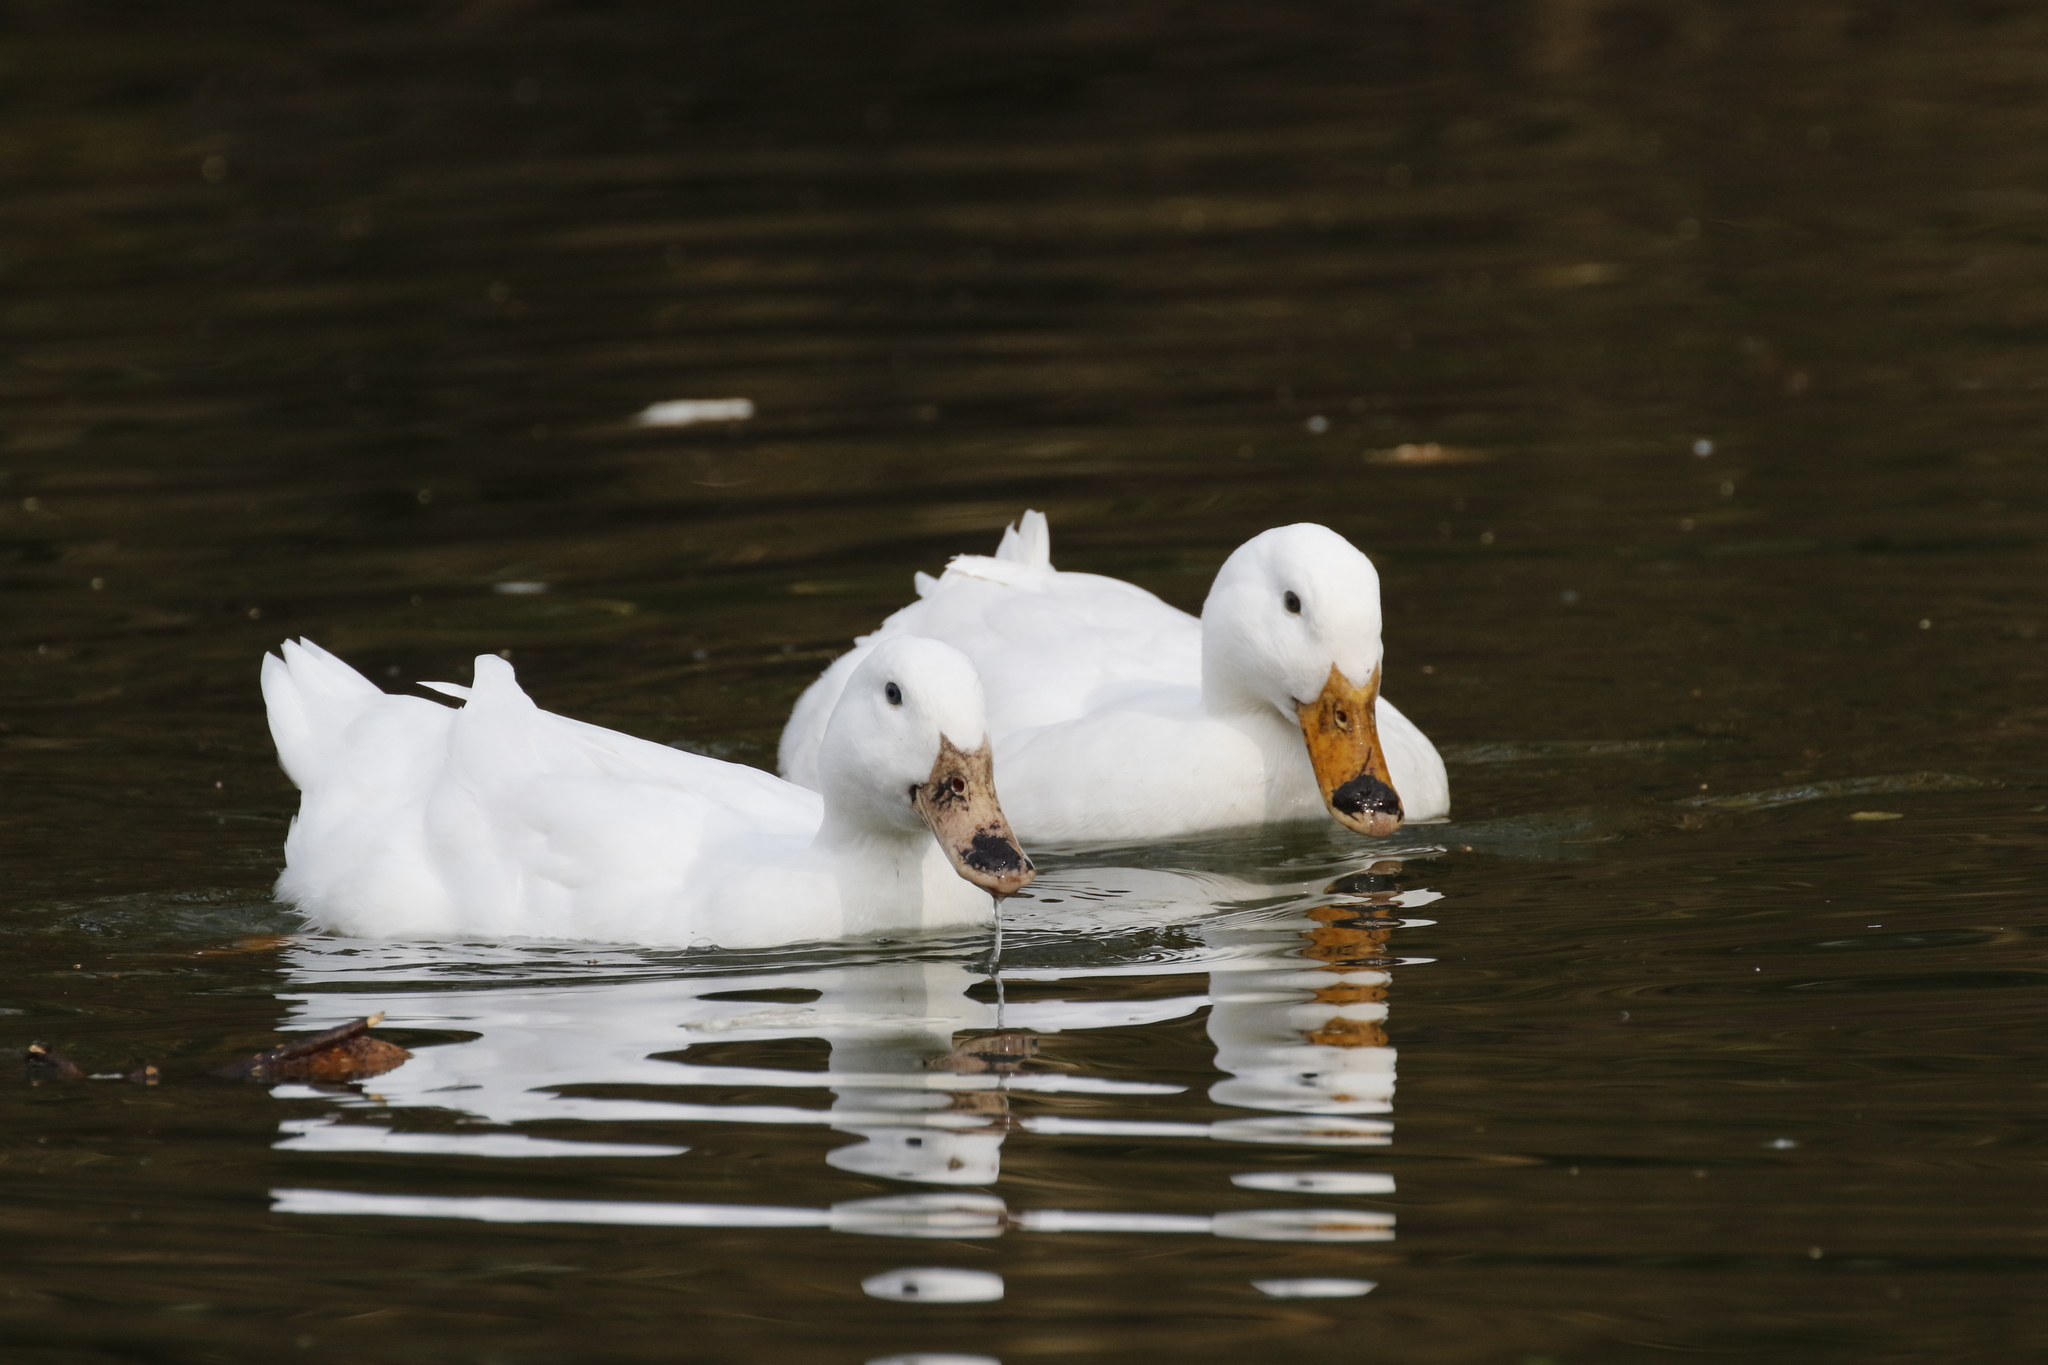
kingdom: Animalia
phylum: Chordata
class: Aves
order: Anseriformes
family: Anatidae
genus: Anas
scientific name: Anas platyrhynchos
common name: Mallard
